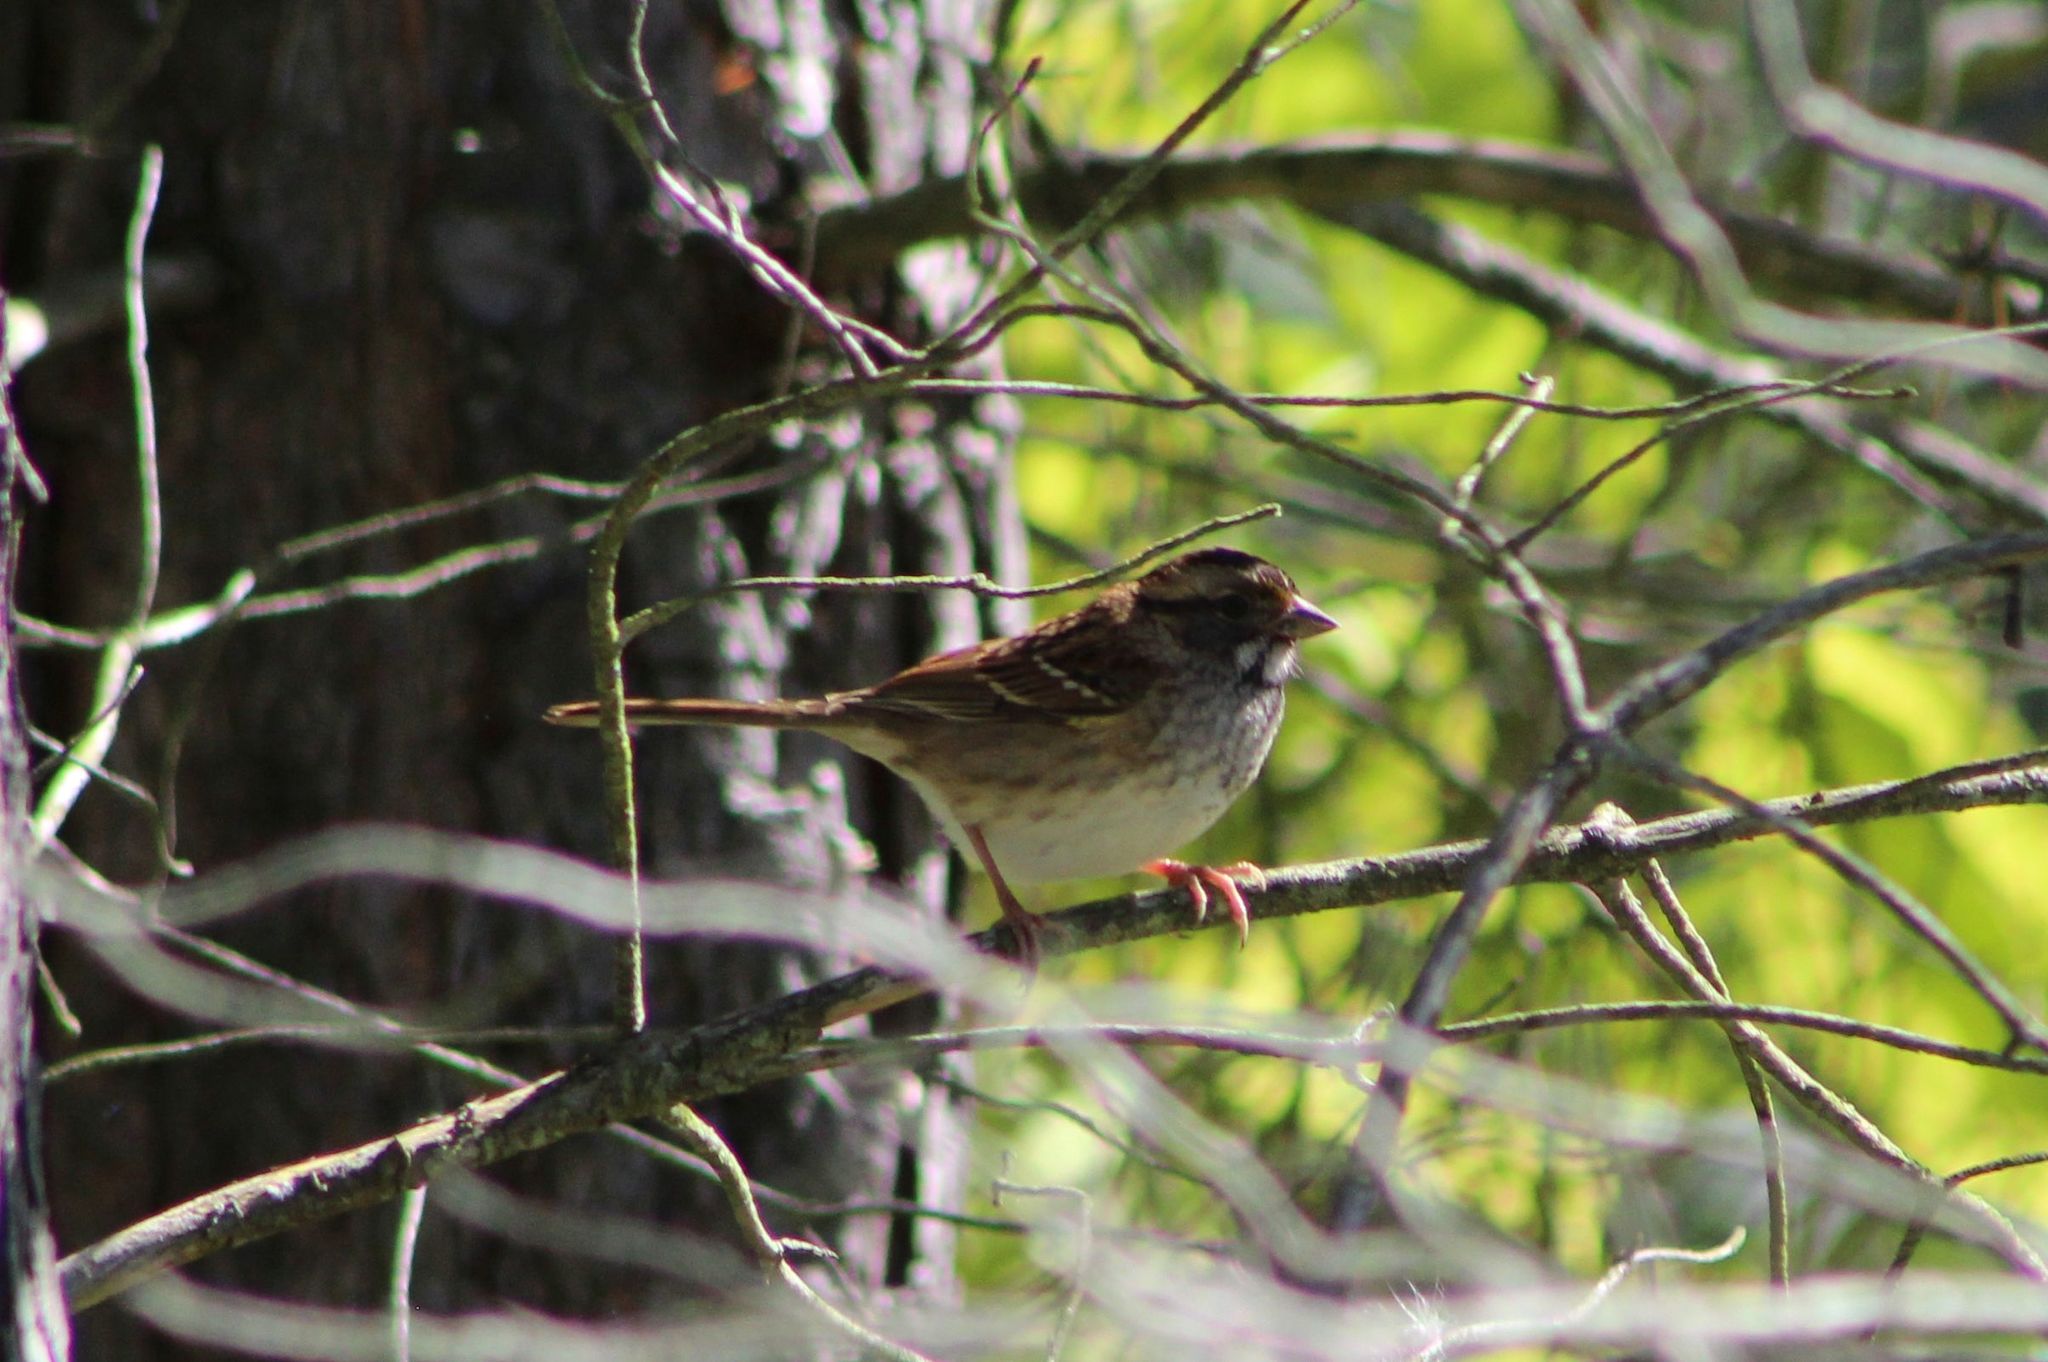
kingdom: Animalia
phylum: Chordata
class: Aves
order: Passeriformes
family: Passerellidae
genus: Zonotrichia
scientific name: Zonotrichia albicollis
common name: White-throated sparrow
